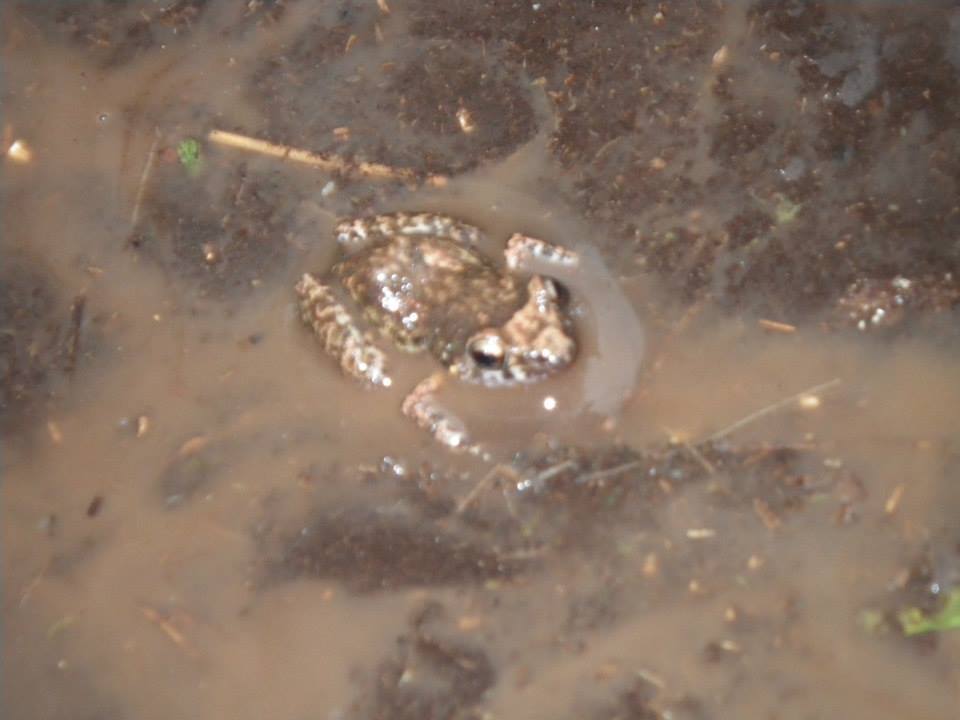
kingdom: Animalia
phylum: Chordata
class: Amphibia
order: Anura
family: Eleutherodactylidae
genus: Eleutherodactylus
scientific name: Eleutherodactylus planirostris
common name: Greenhouse frog
